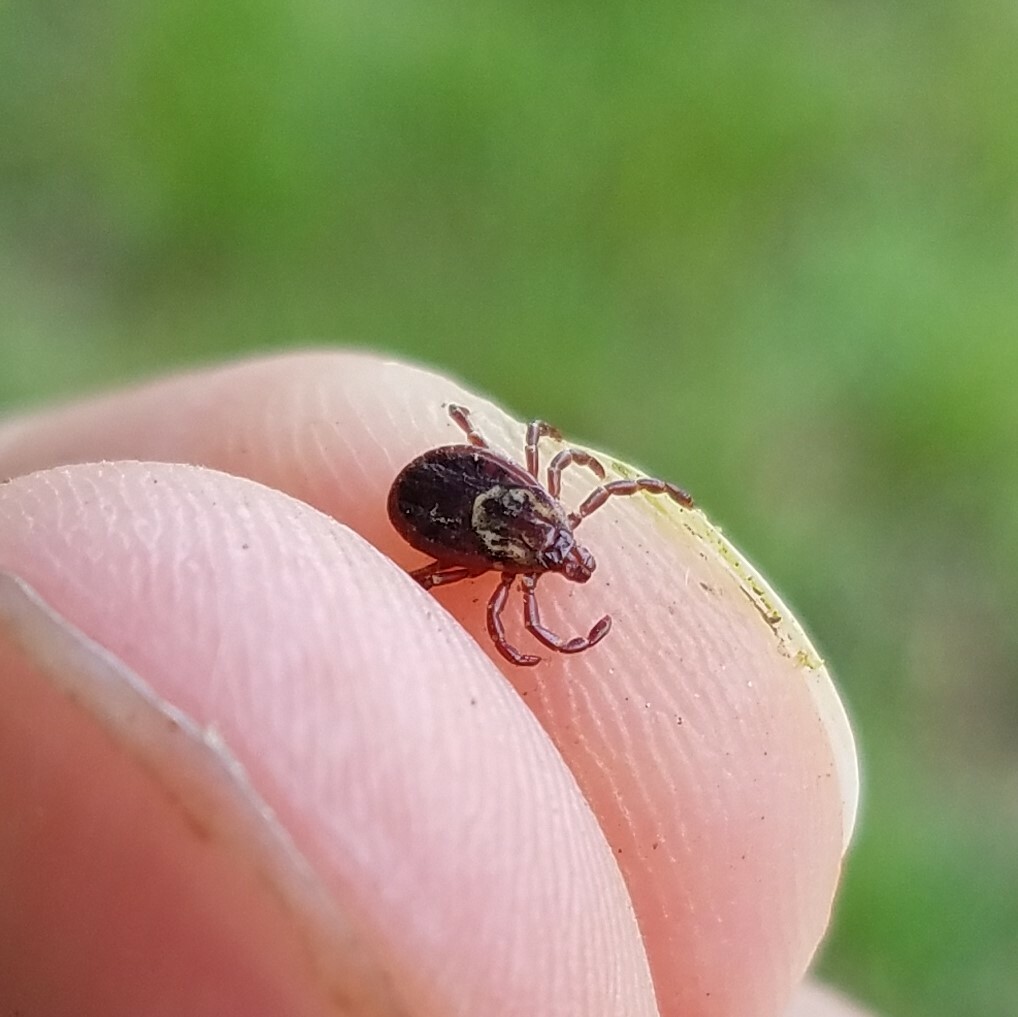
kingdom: Animalia
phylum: Arthropoda
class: Arachnida
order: Ixodida
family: Ixodidae
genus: Dermacentor
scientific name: Dermacentor variabilis
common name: American dog tick
